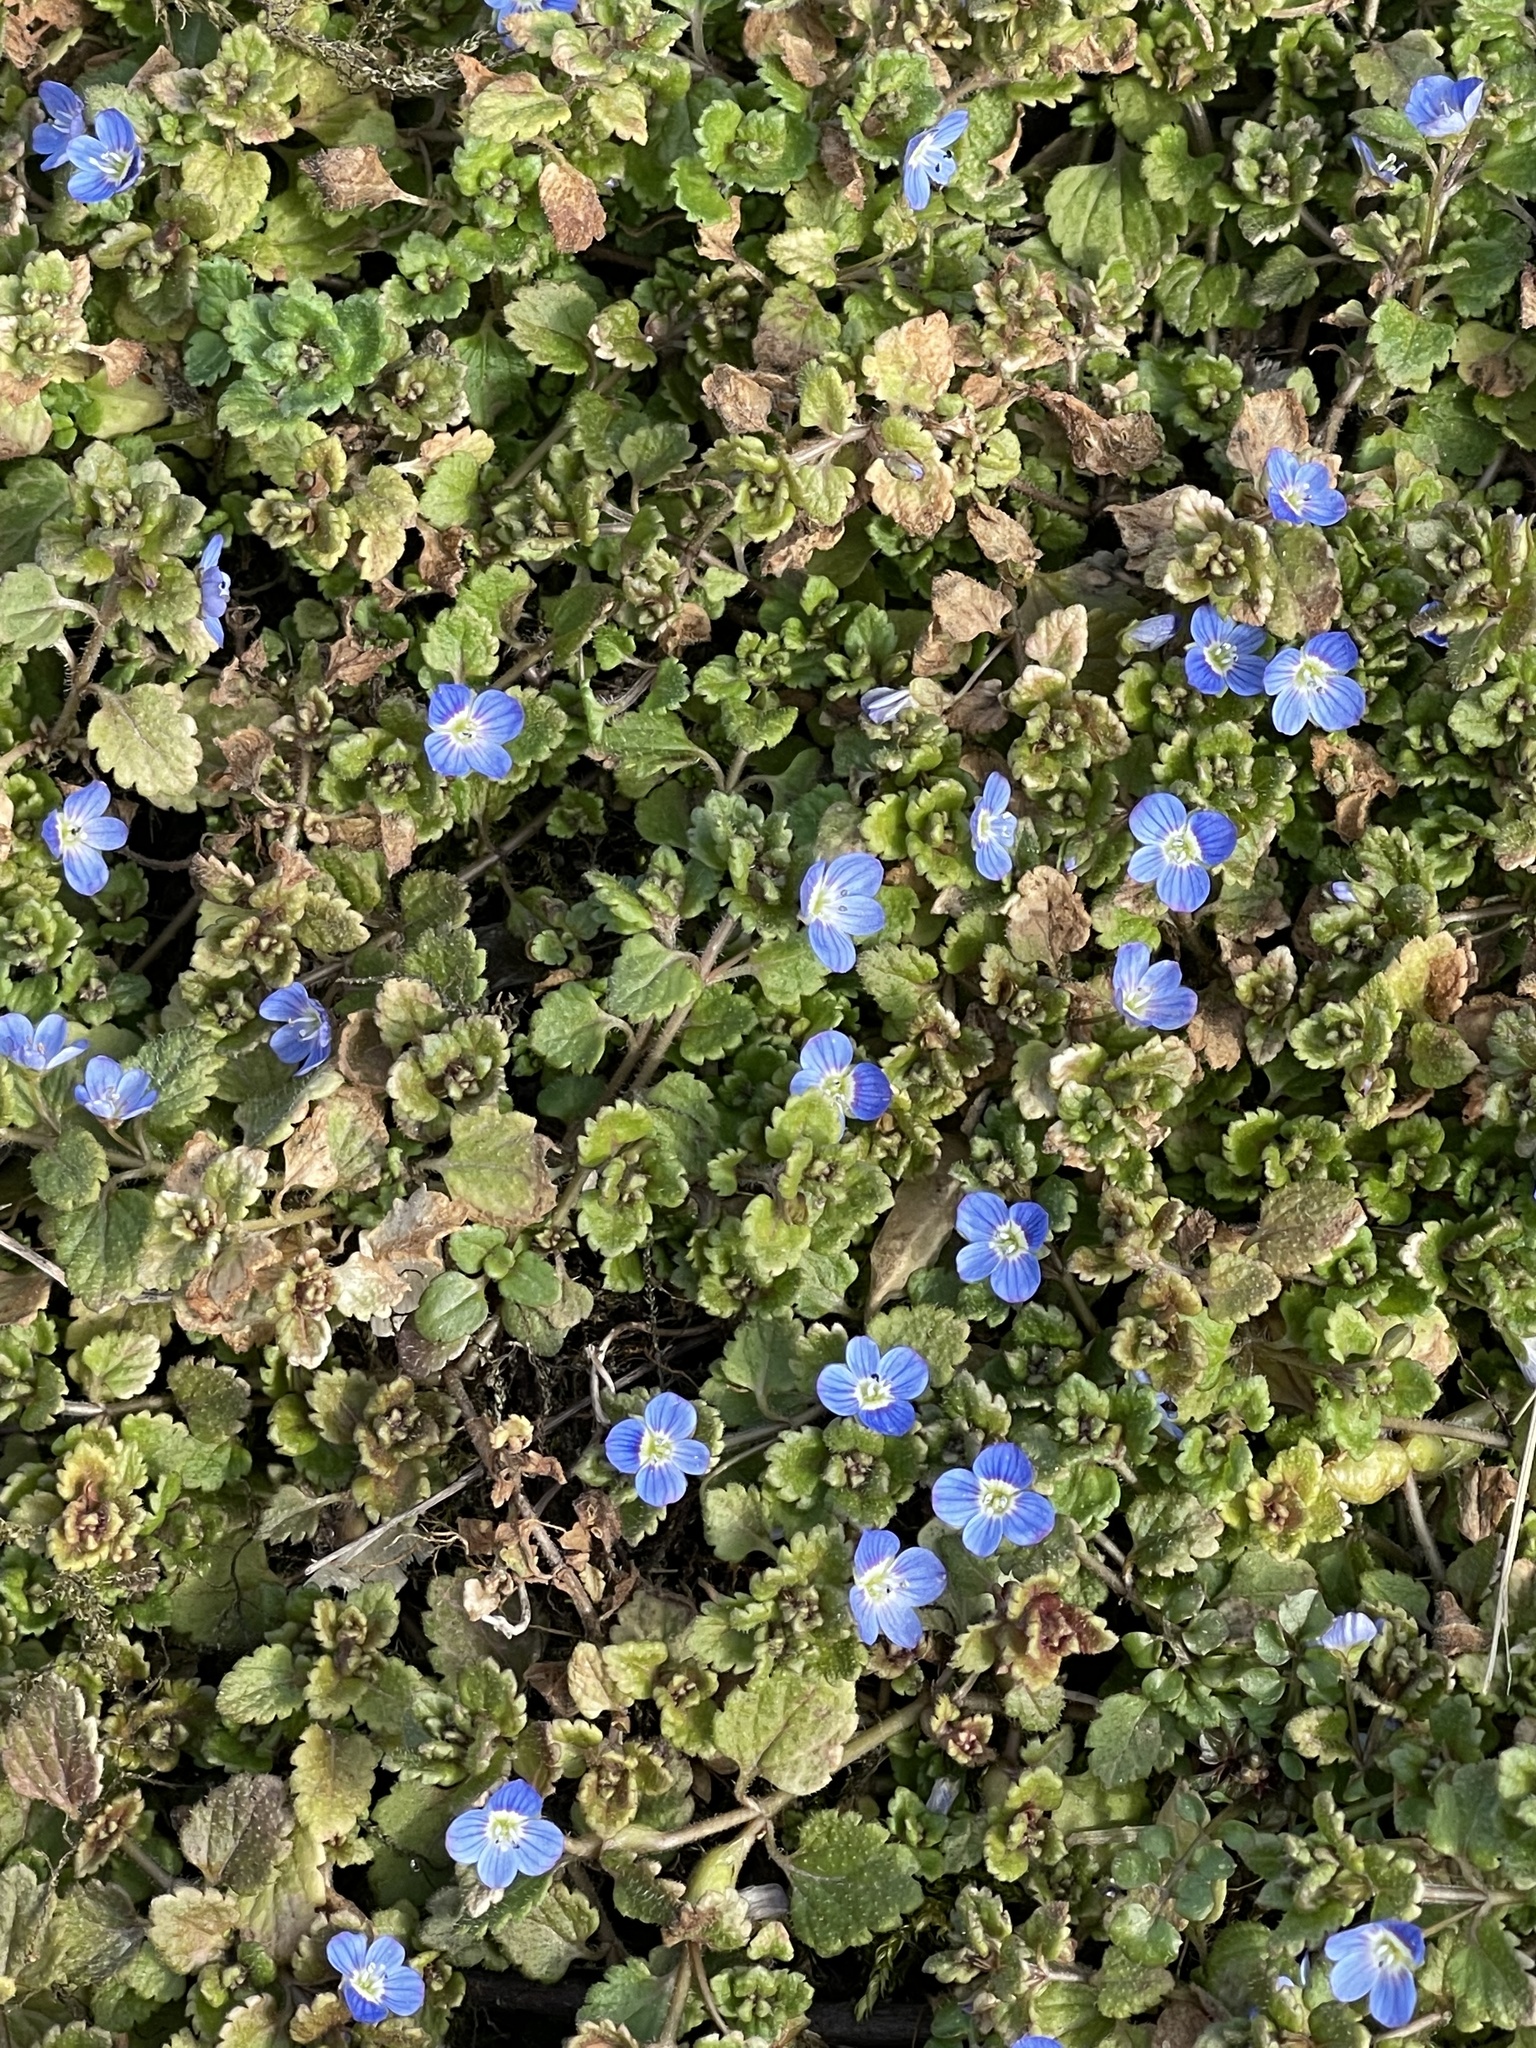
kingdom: Plantae
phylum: Tracheophyta
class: Magnoliopsida
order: Lamiales
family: Plantaginaceae
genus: Veronica
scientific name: Veronica polita
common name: Grey field-speedwell
